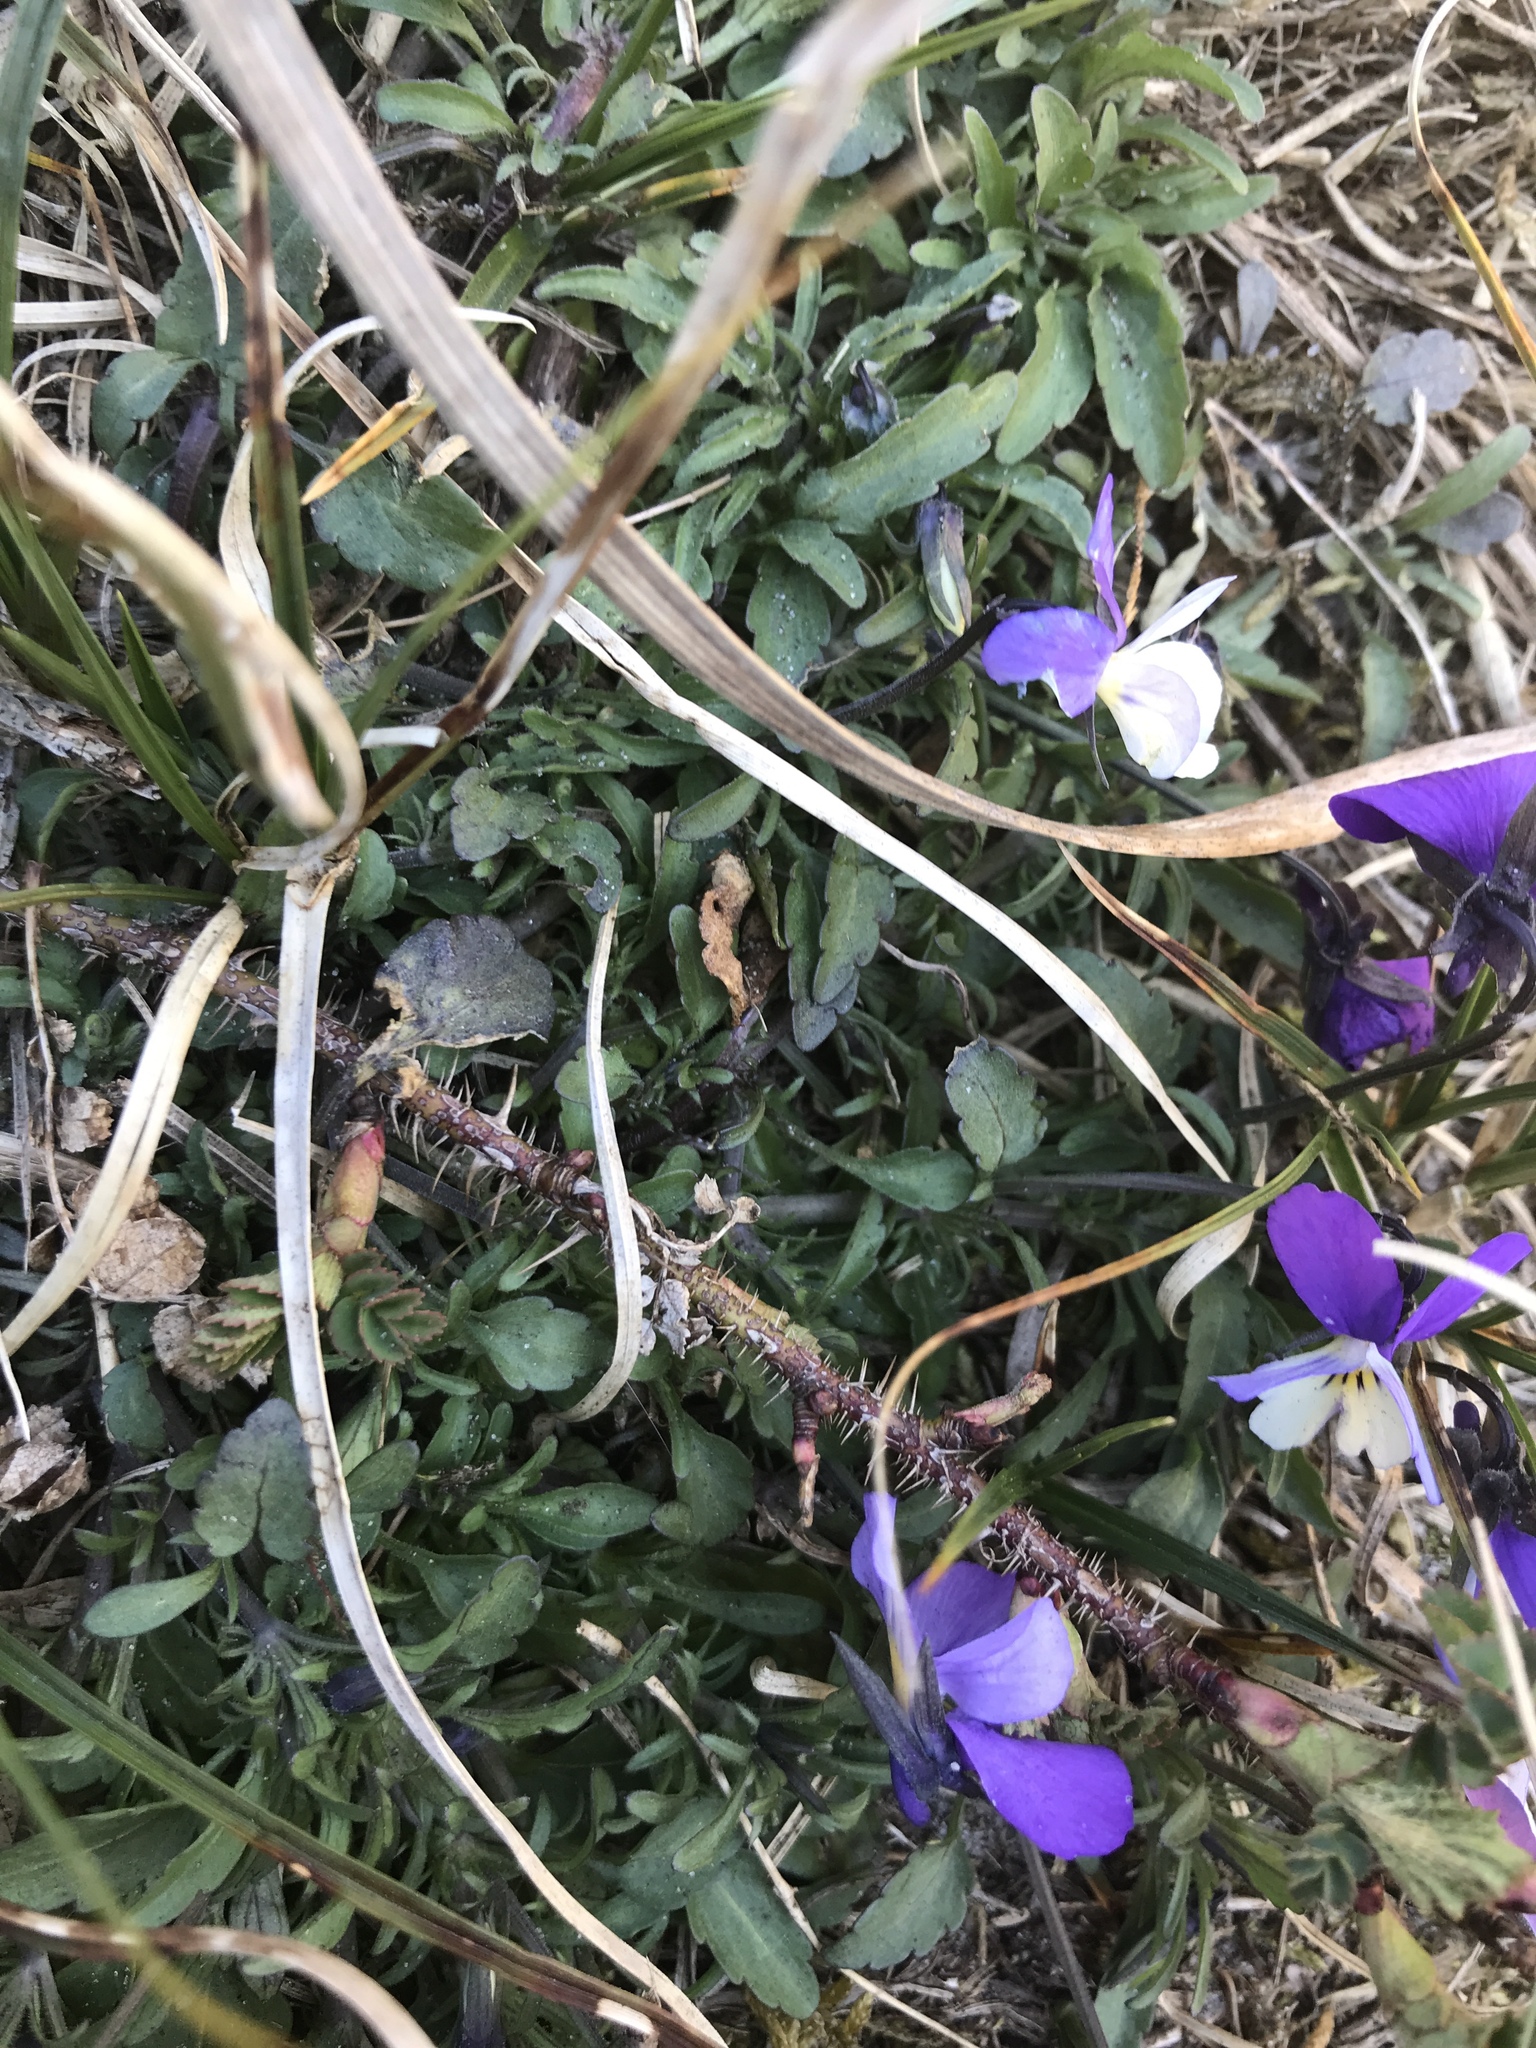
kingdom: Plantae
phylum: Tracheophyta
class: Magnoliopsida
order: Malpighiales
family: Violaceae
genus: Viola
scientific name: Viola tricolor
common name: Pansy
